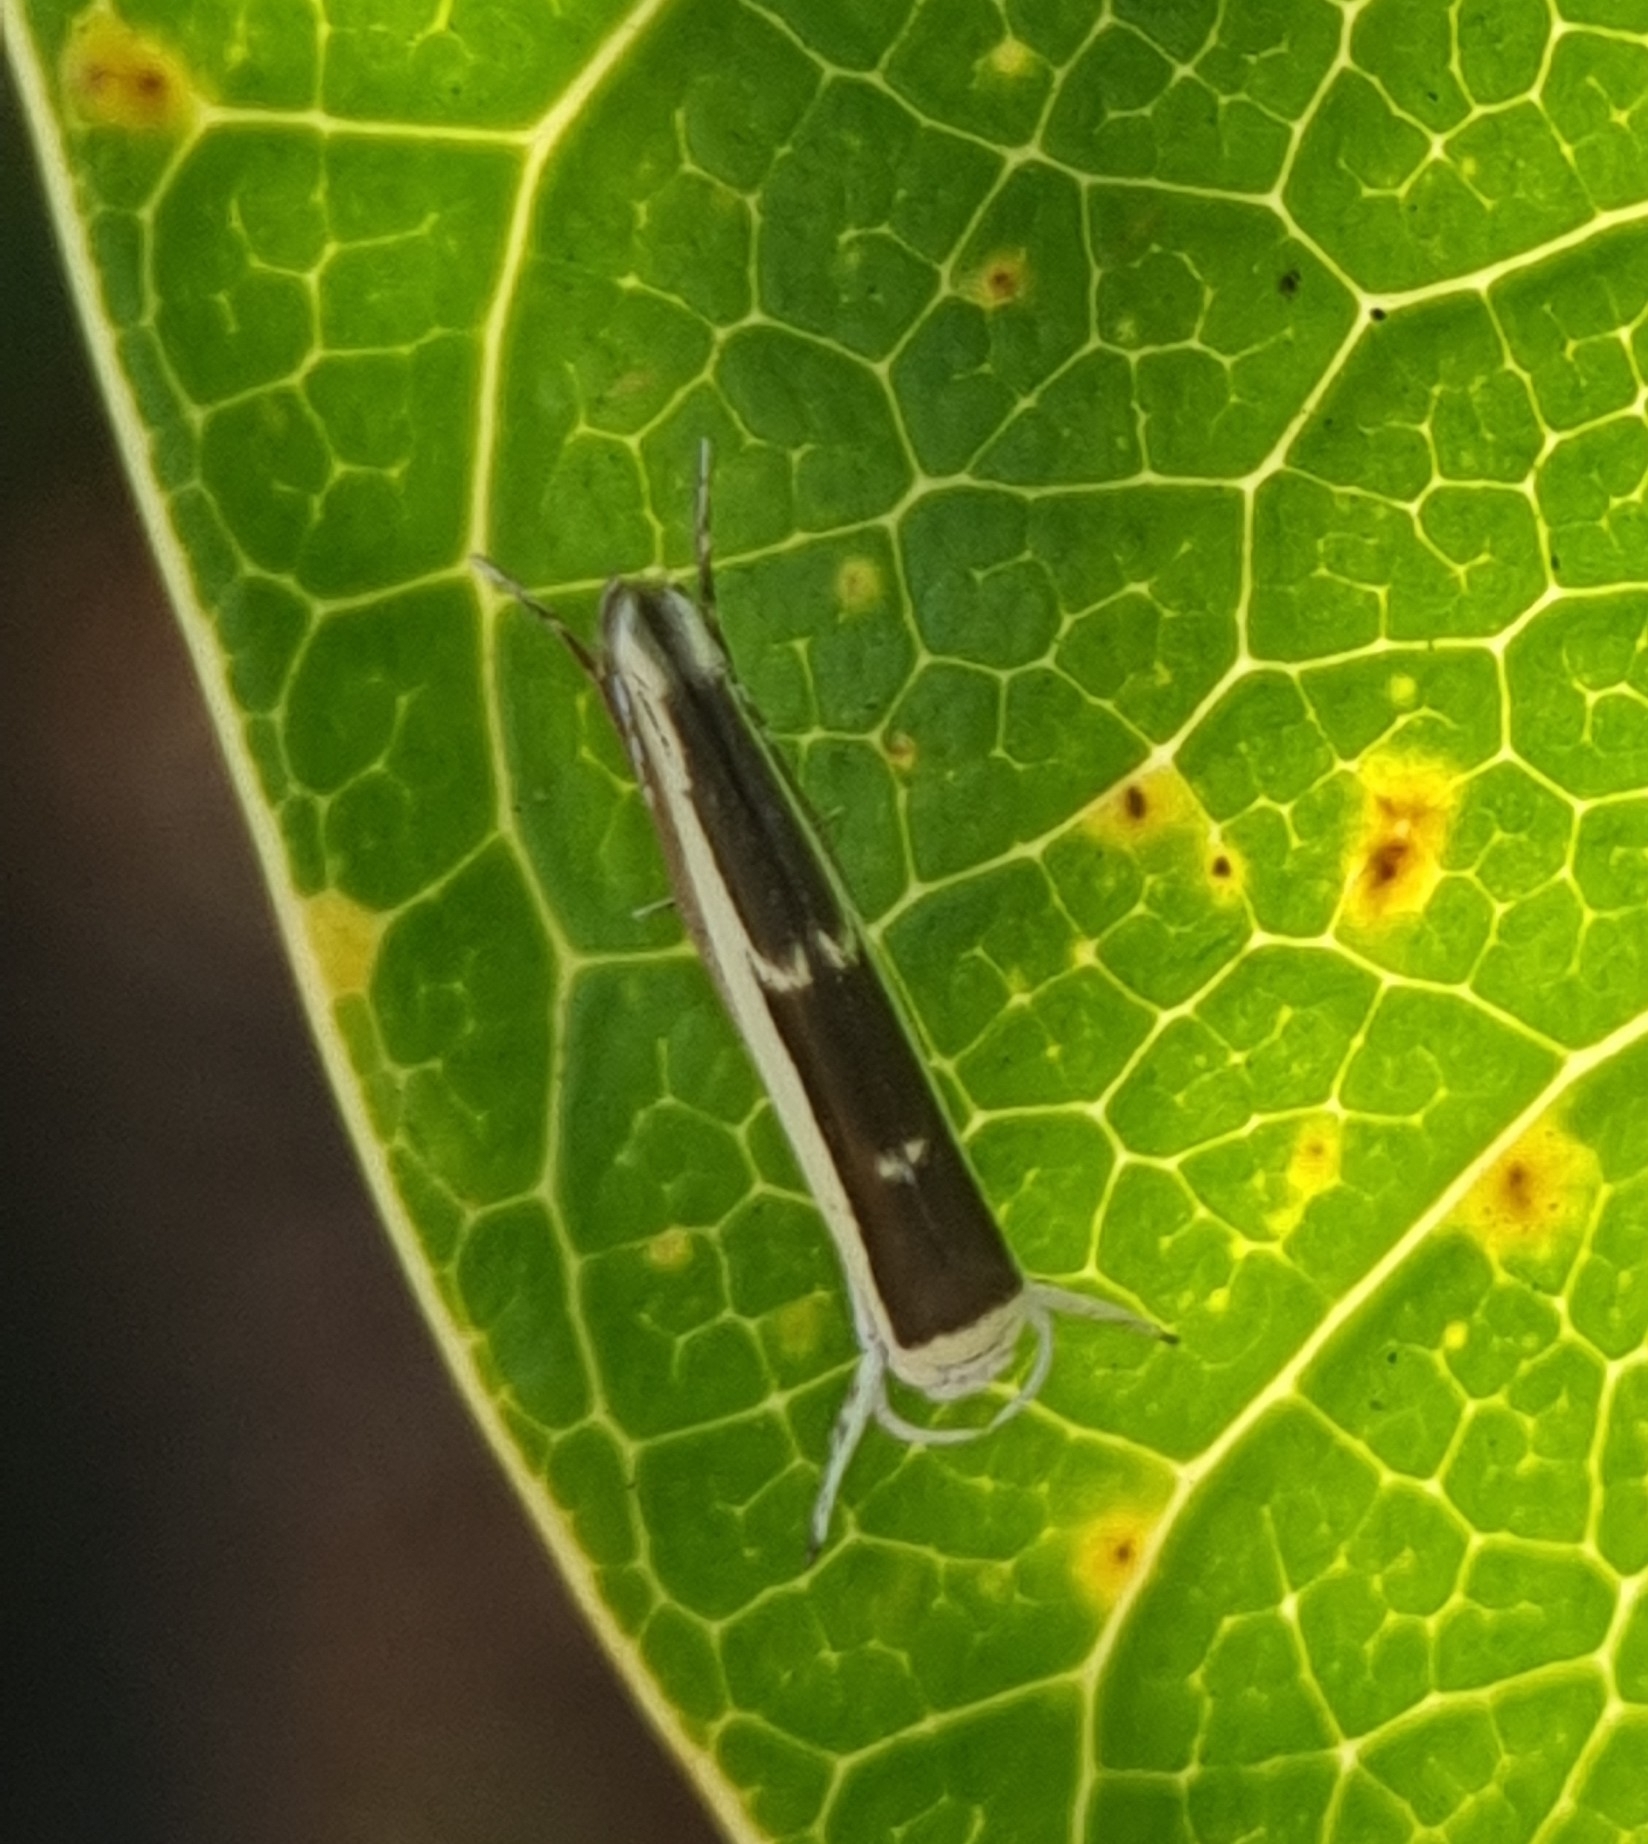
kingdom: Animalia
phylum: Arthropoda
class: Insecta
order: Lepidoptera
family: Roeslerstammiidae
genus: Vanicela
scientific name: Vanicela xenadelpha
